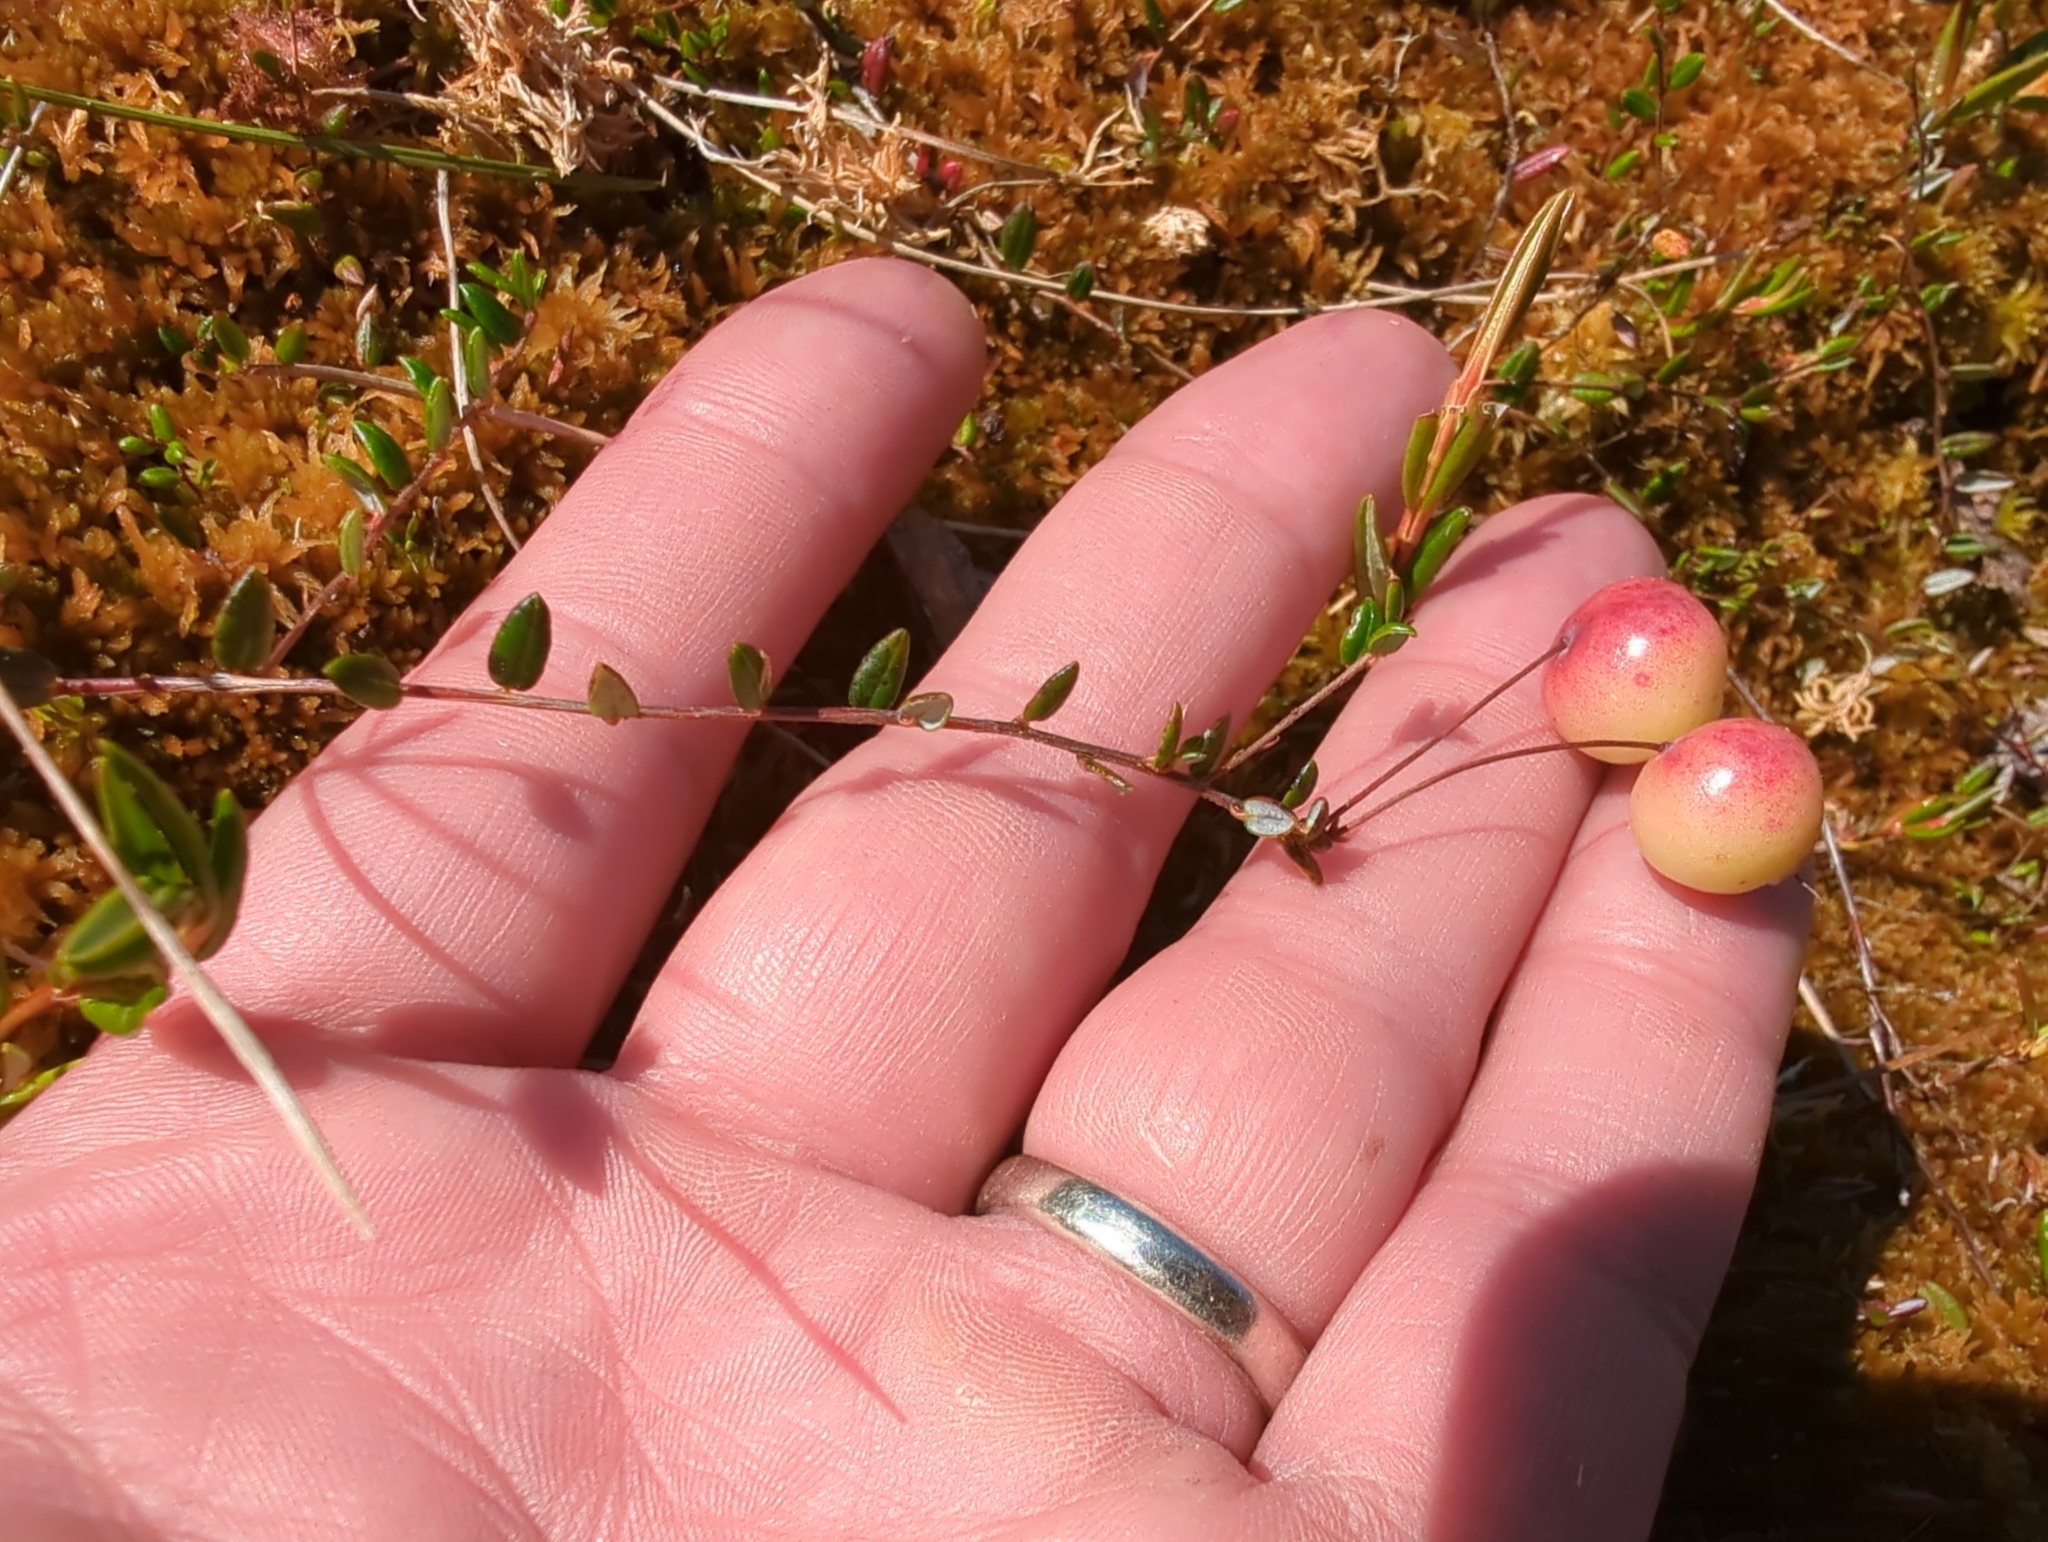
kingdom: Plantae
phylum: Tracheophyta
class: Magnoliopsida
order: Ericales
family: Ericaceae
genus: Vaccinium
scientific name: Vaccinium oxycoccos
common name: Cranberry
